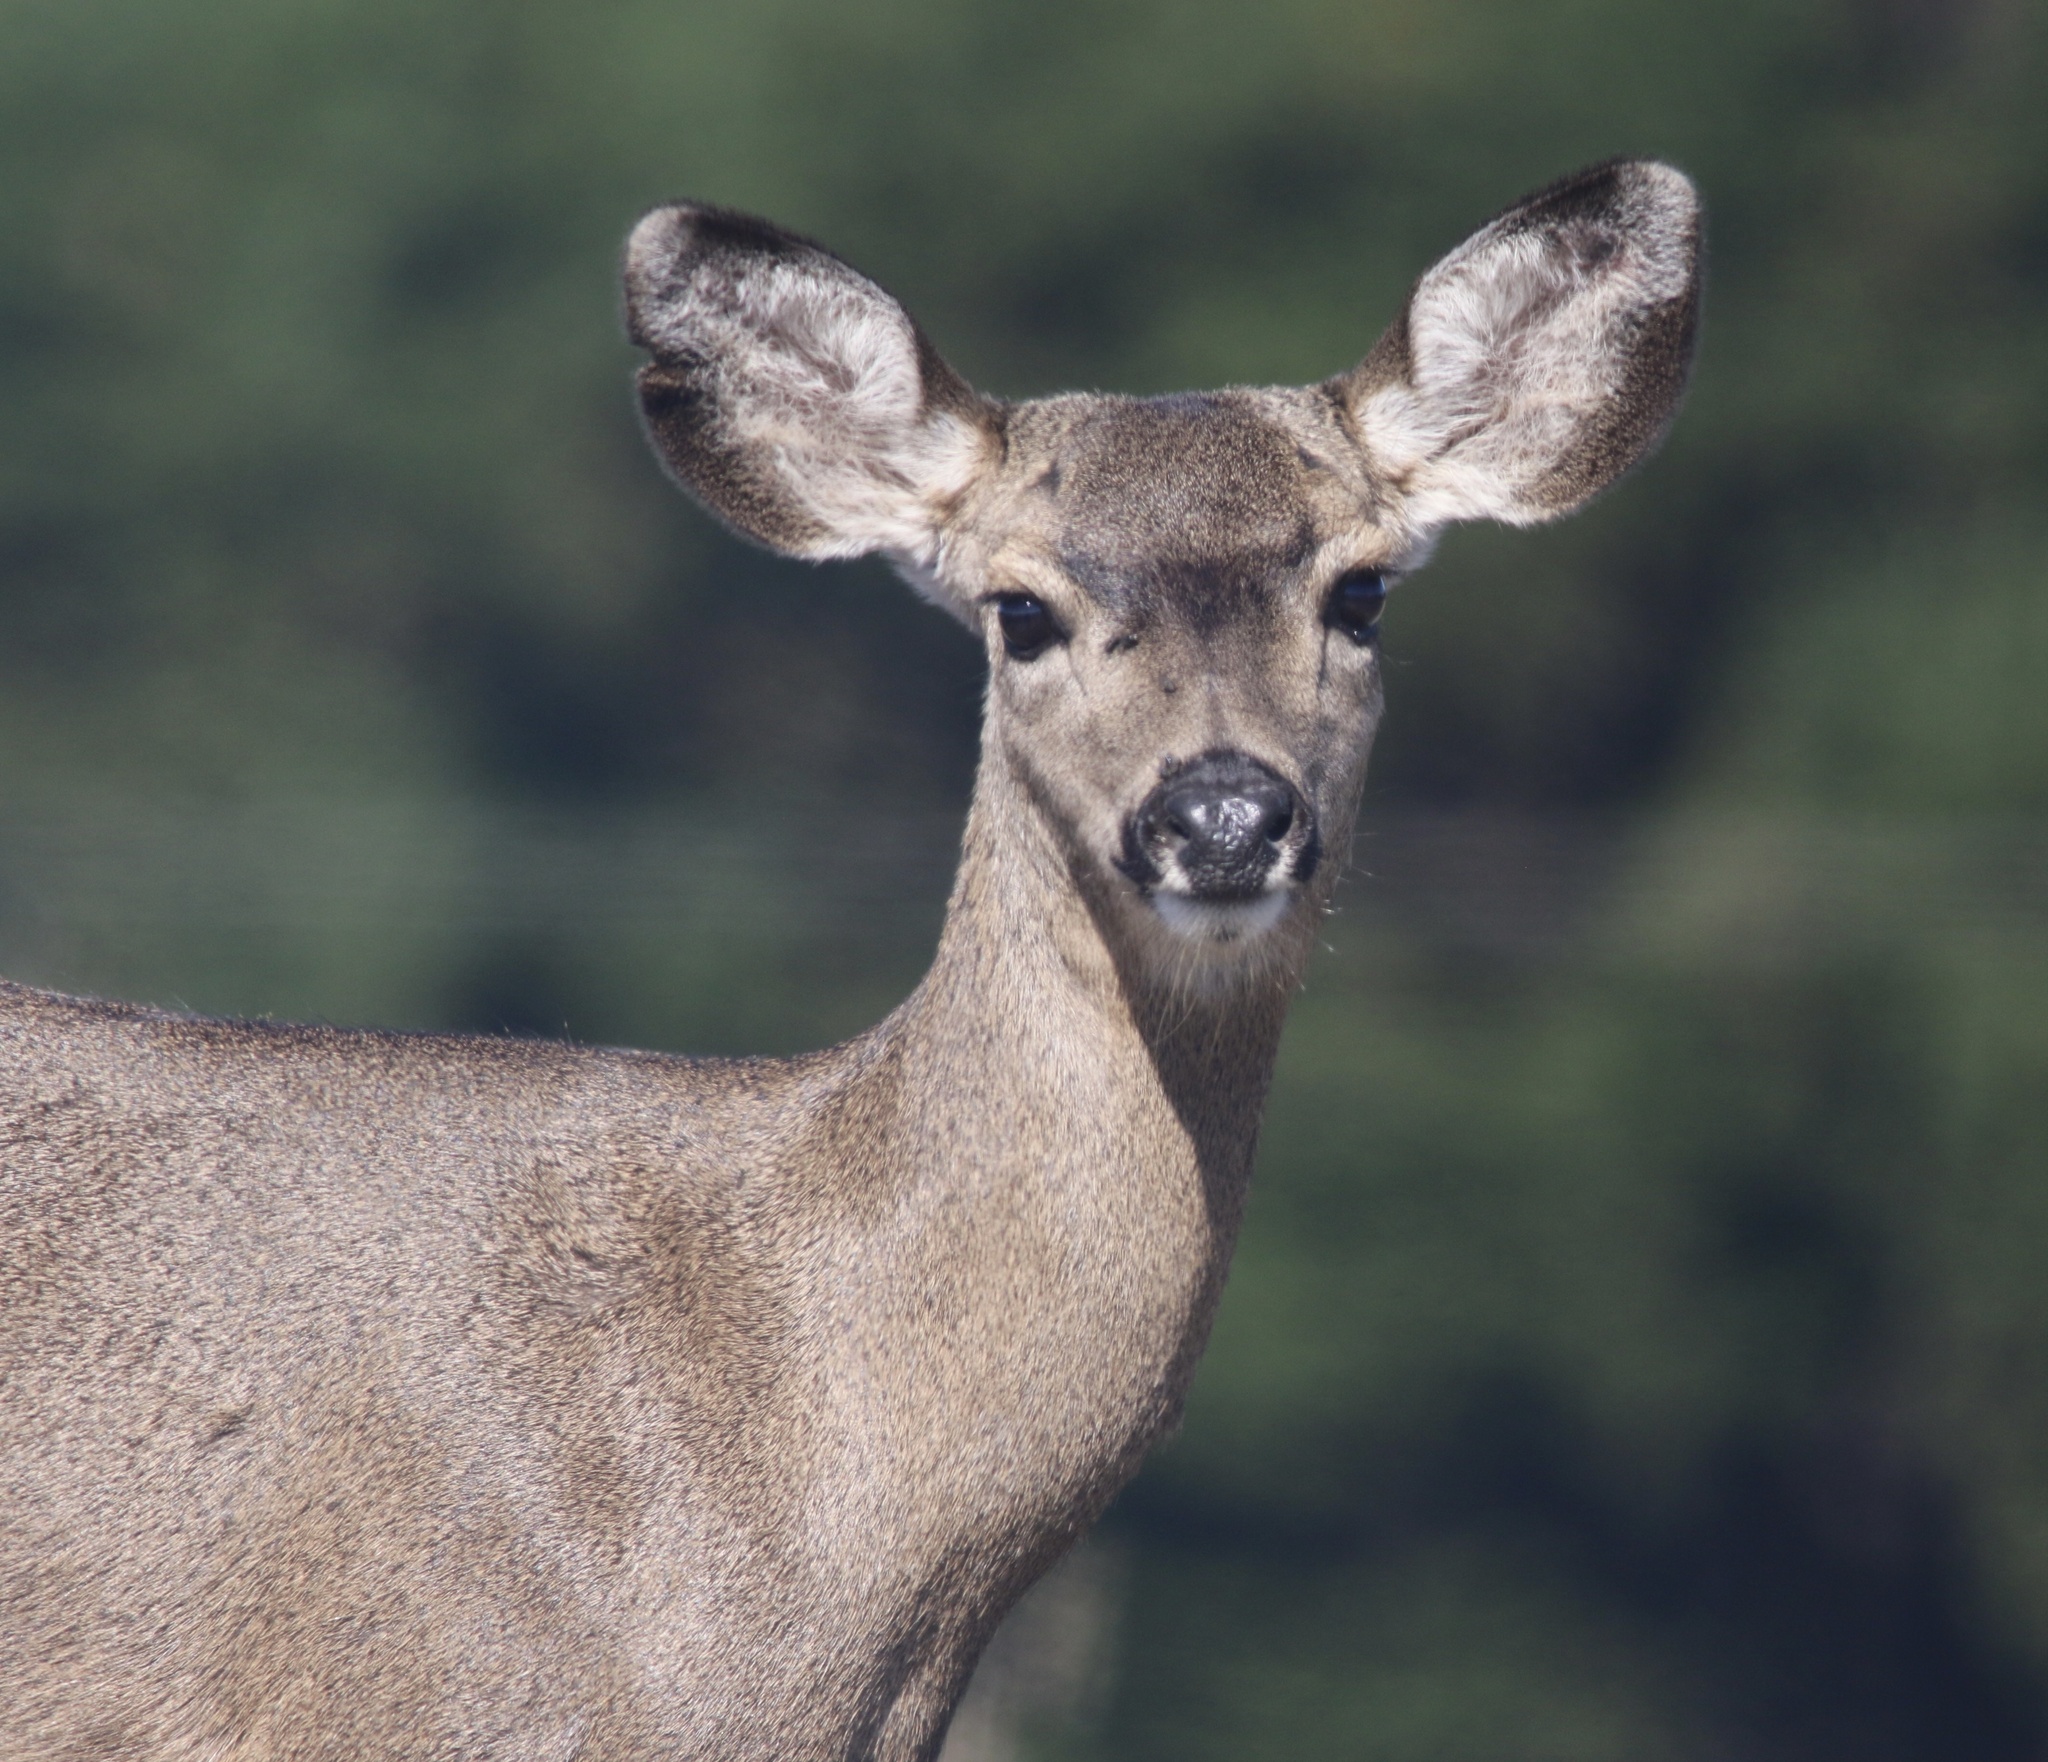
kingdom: Animalia
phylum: Chordata
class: Mammalia
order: Artiodactyla
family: Cervidae
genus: Odocoileus
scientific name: Odocoileus hemionus
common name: Mule deer
